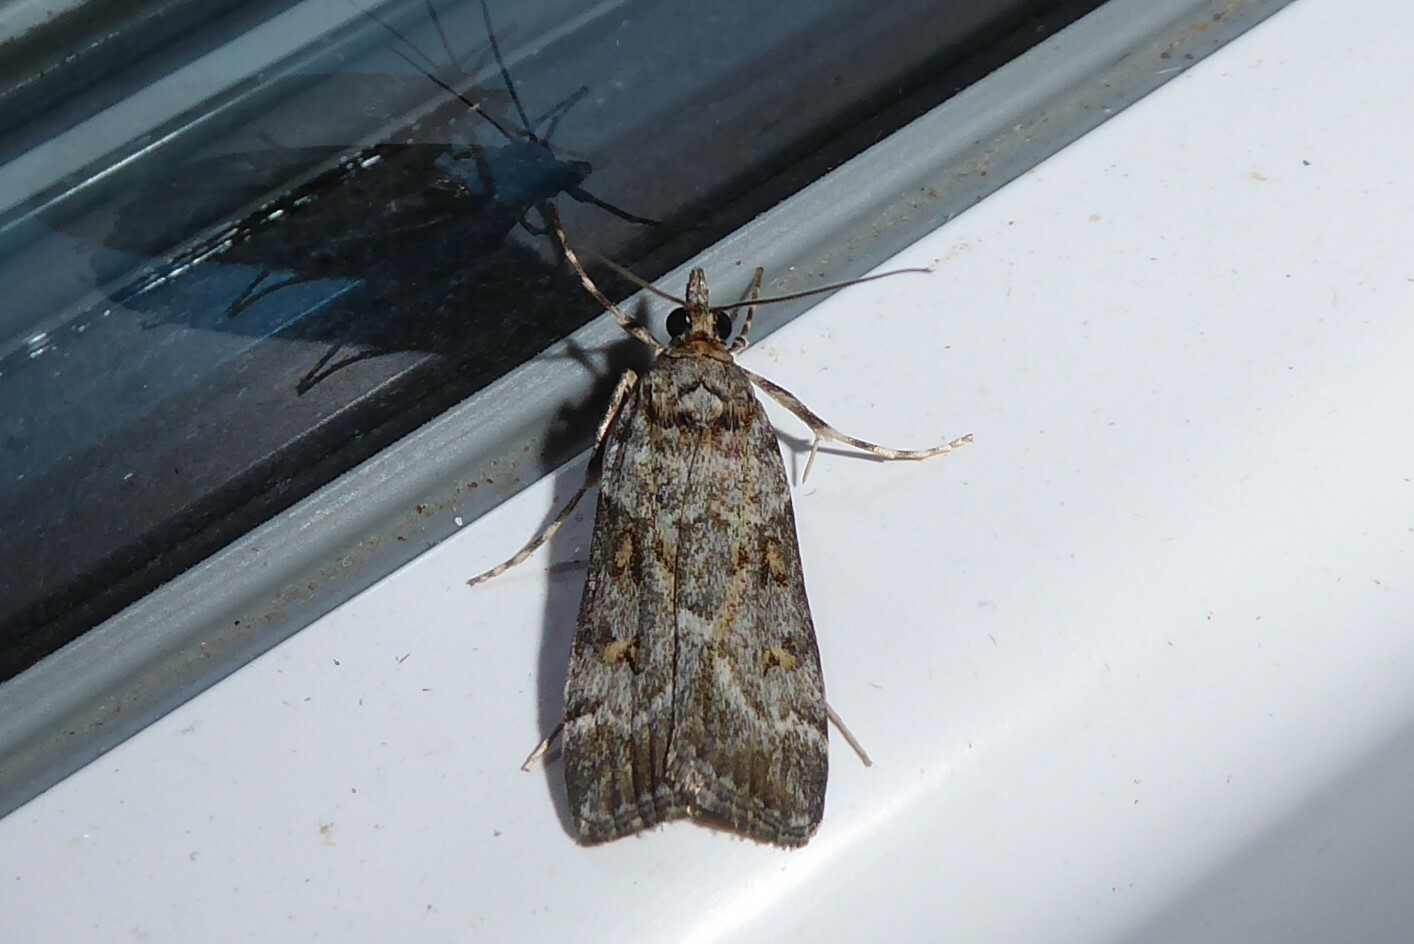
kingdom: Animalia
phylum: Arthropoda
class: Insecta
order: Lepidoptera
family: Crambidae
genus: Scoparia
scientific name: Scoparia tetracycla
